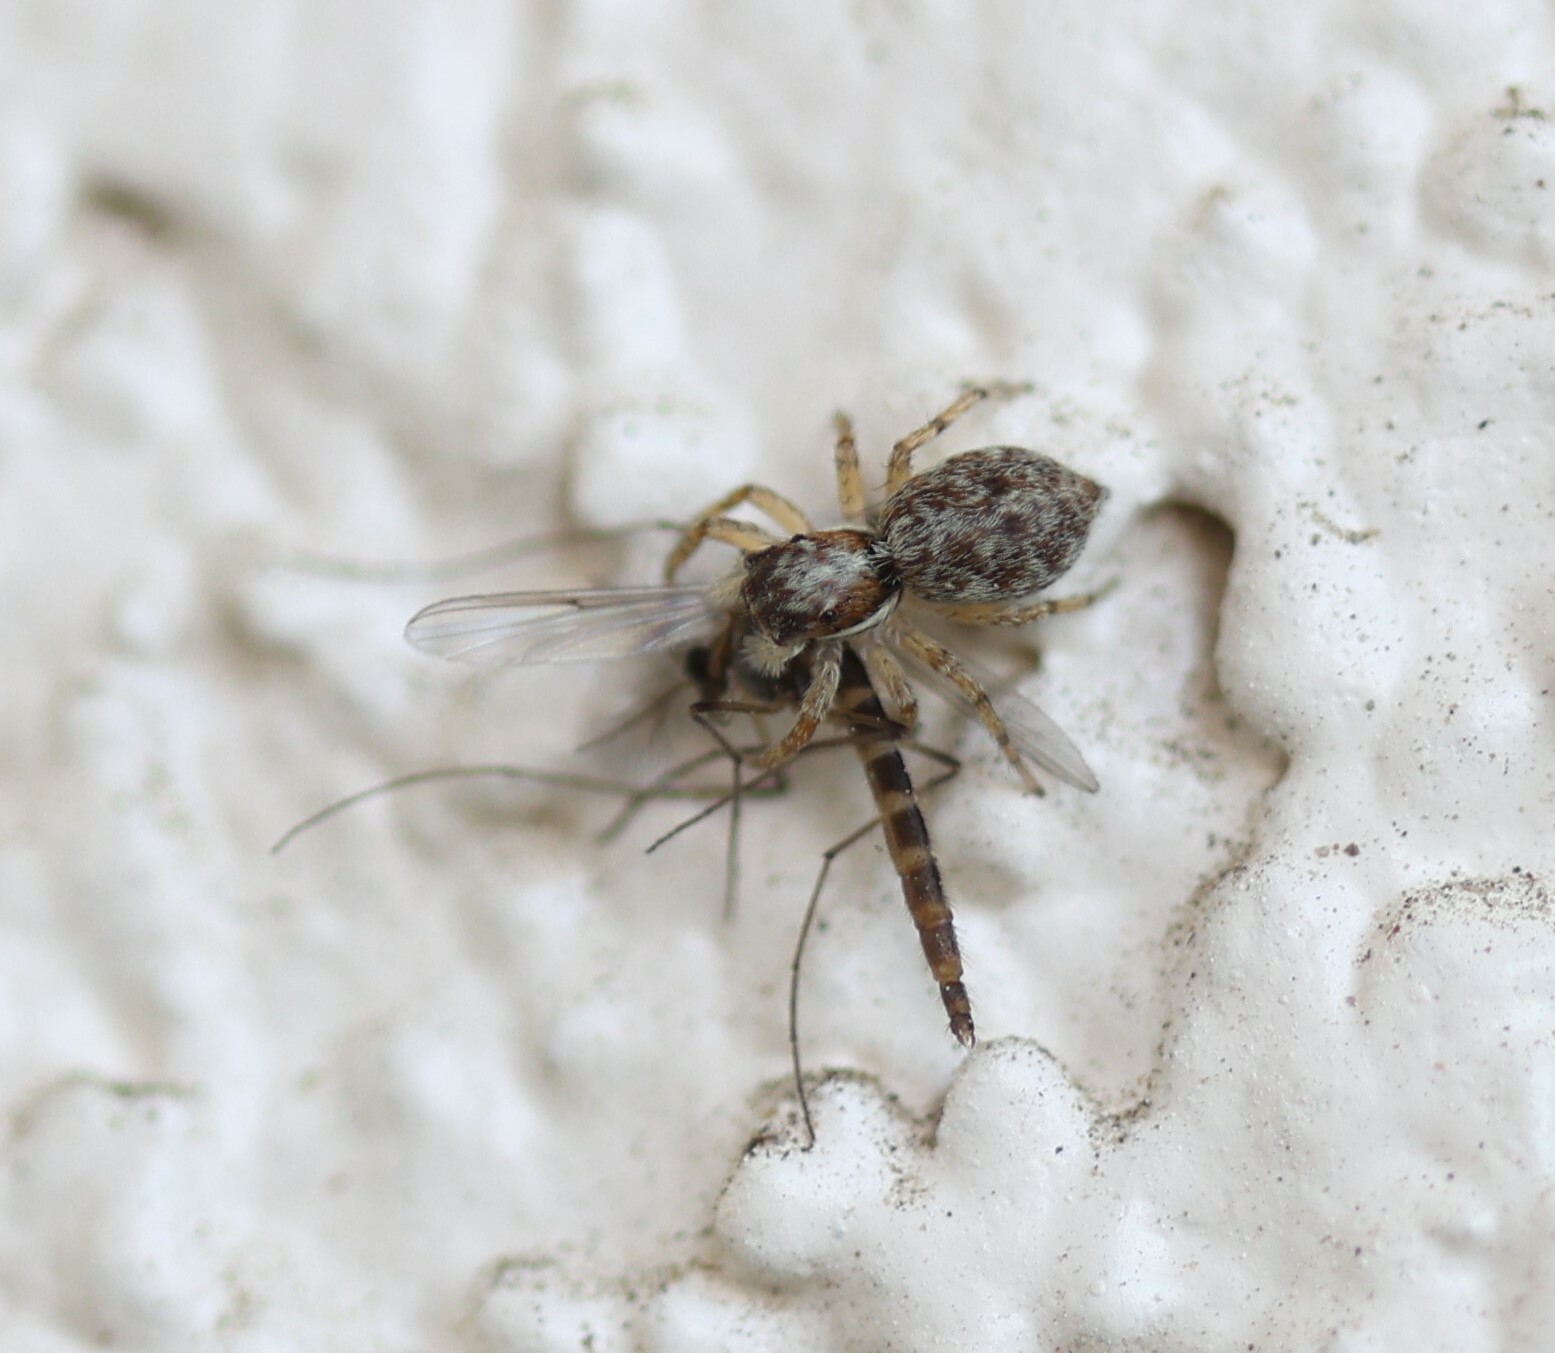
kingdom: Animalia
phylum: Arthropoda
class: Arachnida
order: Araneae
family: Salticidae
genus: Menemerus
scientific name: Menemerus semilimbatus
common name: Jumping spider
